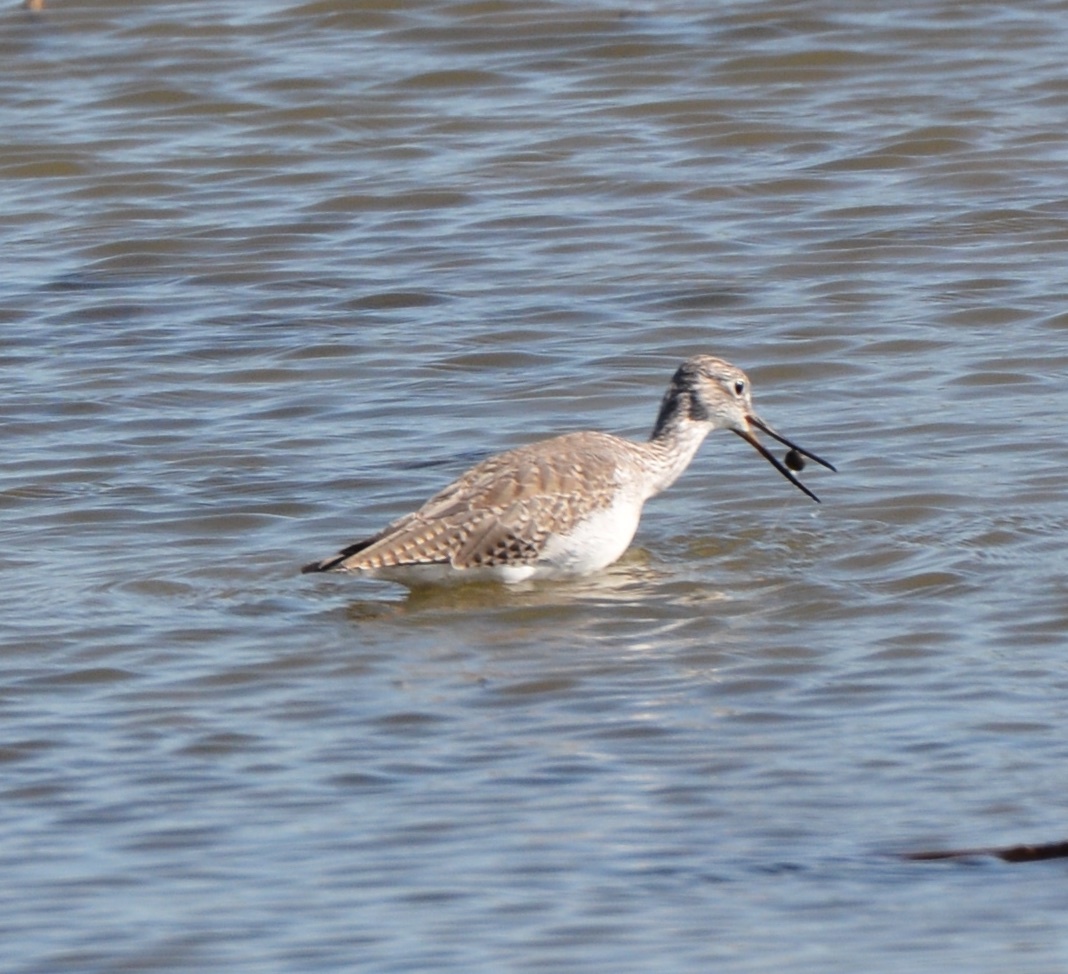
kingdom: Animalia
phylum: Chordata
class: Aves
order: Charadriiformes
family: Scolopacidae
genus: Tringa
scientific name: Tringa melanoleuca
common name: Greater yellowlegs
